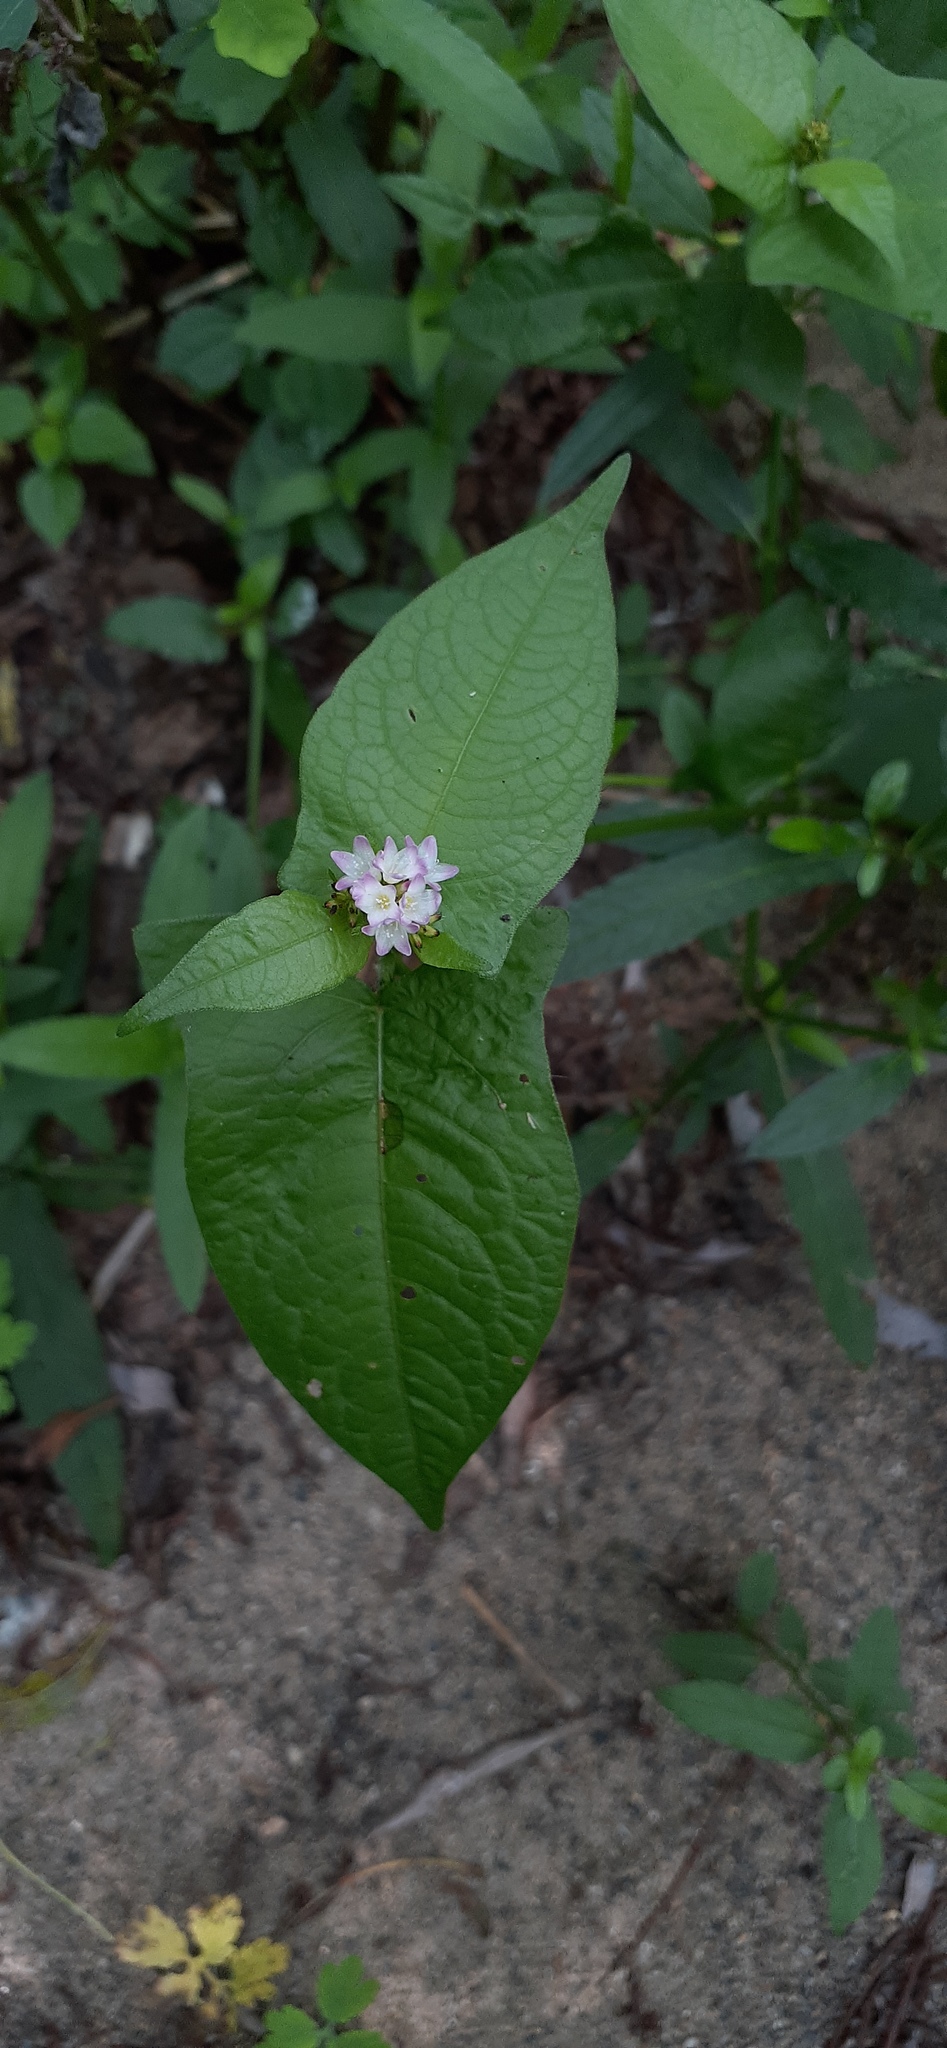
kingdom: Plantae
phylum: Tracheophyta
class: Magnoliopsida
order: Caryophyllales
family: Polygonaceae
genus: Persicaria
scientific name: Persicaria thunbergii
